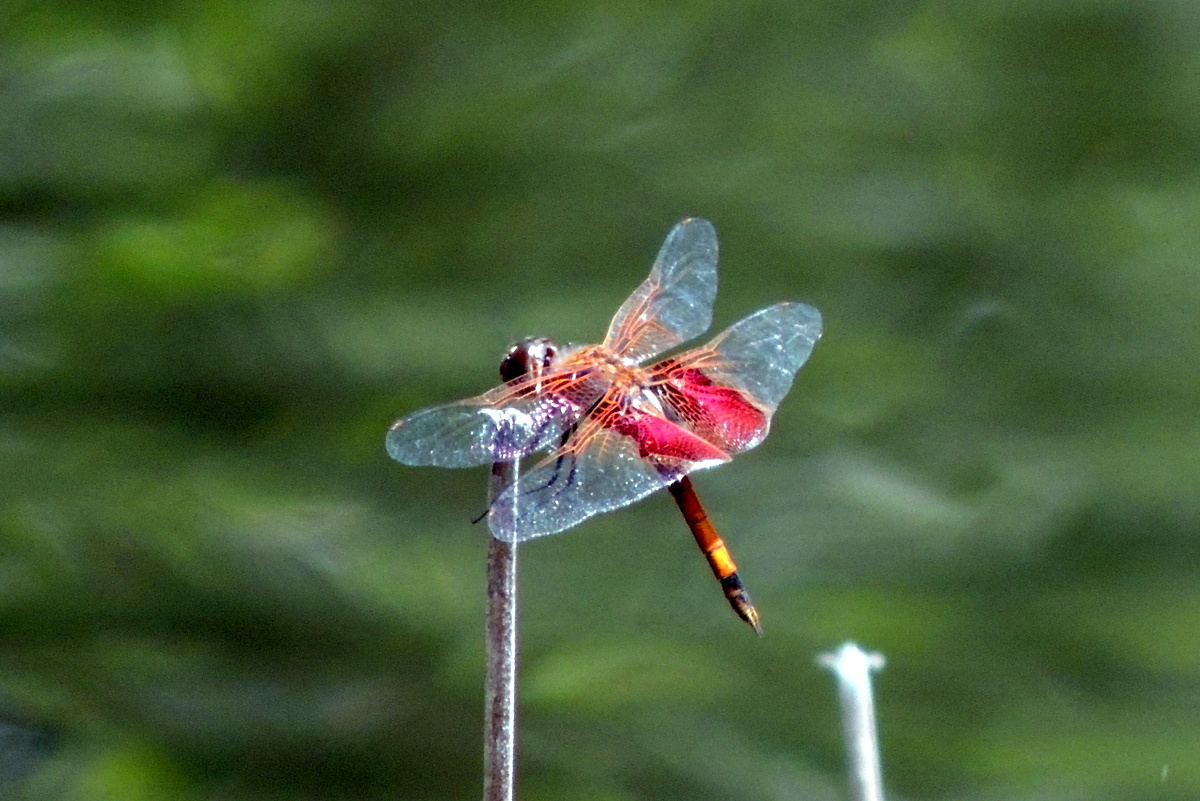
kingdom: Animalia
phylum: Arthropoda
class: Insecta
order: Odonata
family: Libellulidae
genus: Tramea
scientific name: Tramea carolina
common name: Carolina saddlebags
